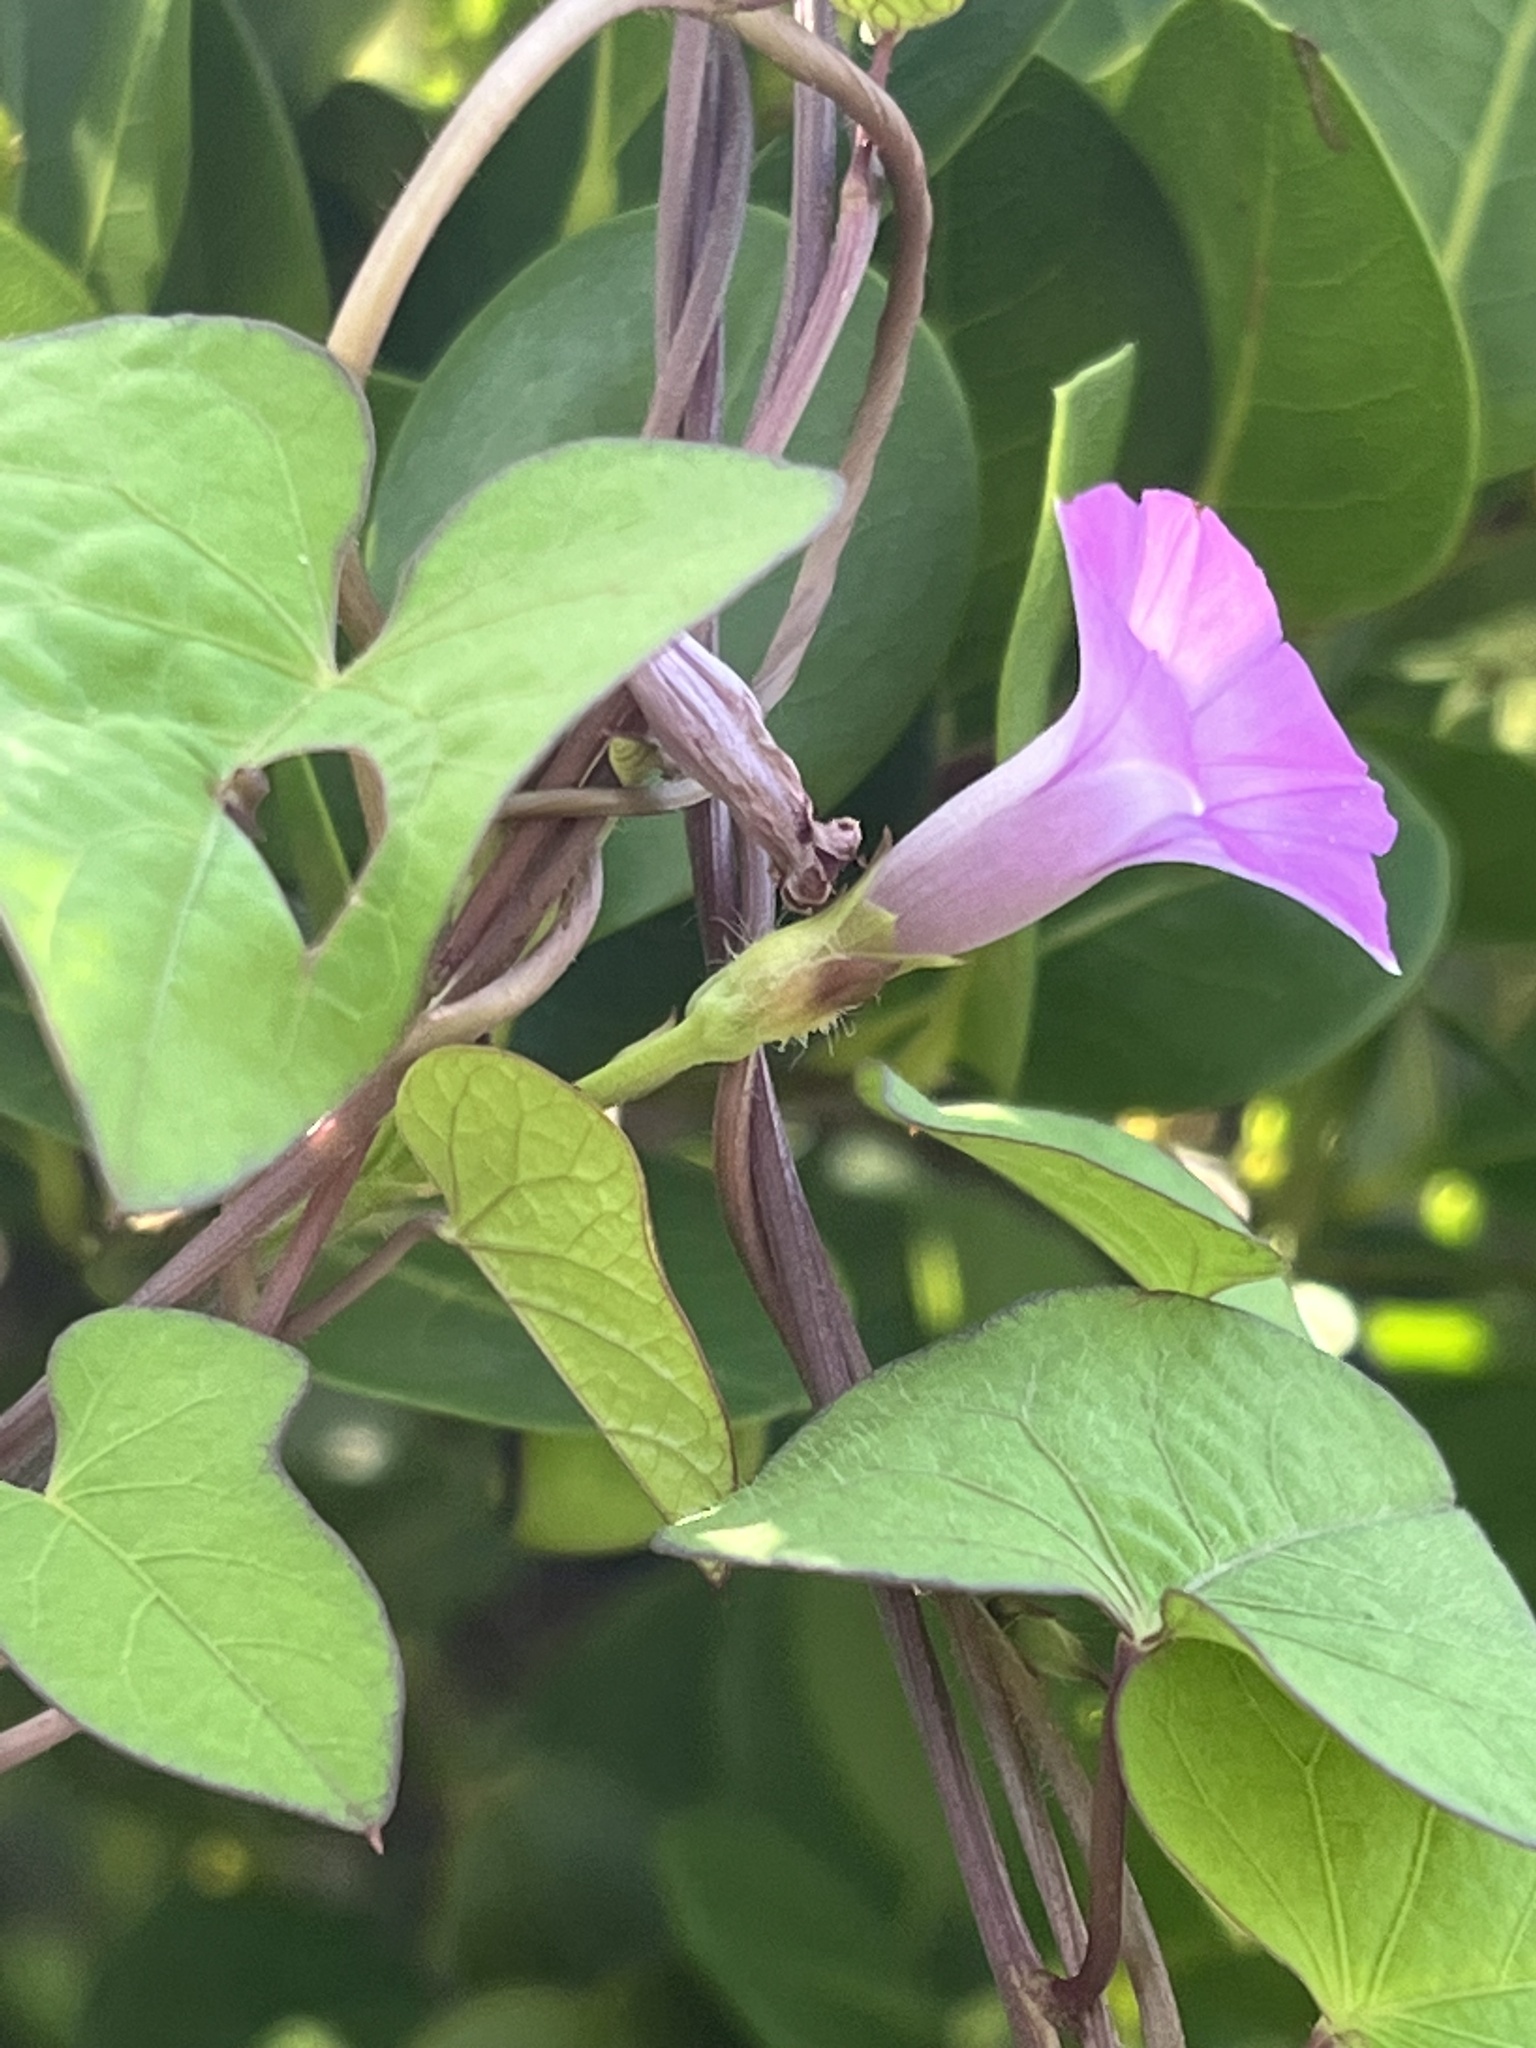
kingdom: Plantae
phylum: Tracheophyta
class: Magnoliopsida
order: Solanales
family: Convolvulaceae
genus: Ipomoea
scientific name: Ipomoea triloba
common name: Little-bell
